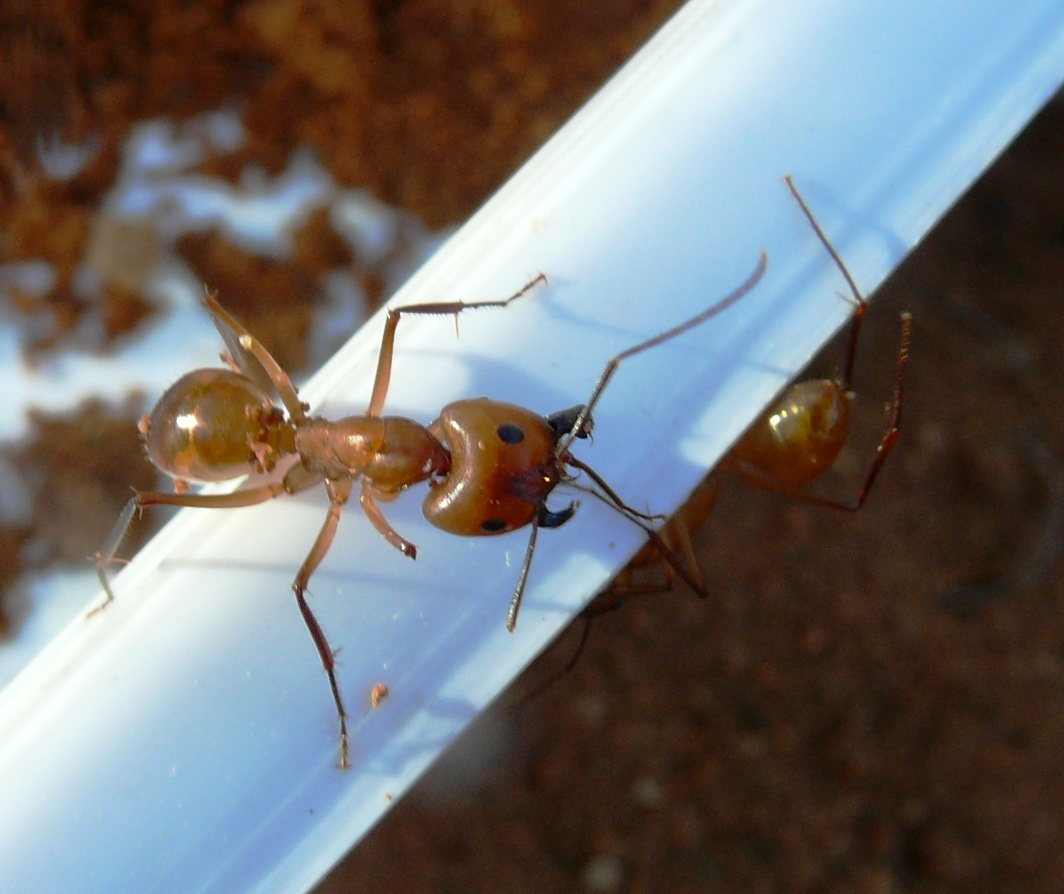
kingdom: Animalia
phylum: Arthropoda
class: Insecta
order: Hymenoptera
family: Formicidae
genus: Camponotus
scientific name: Camponotus mystaceus
